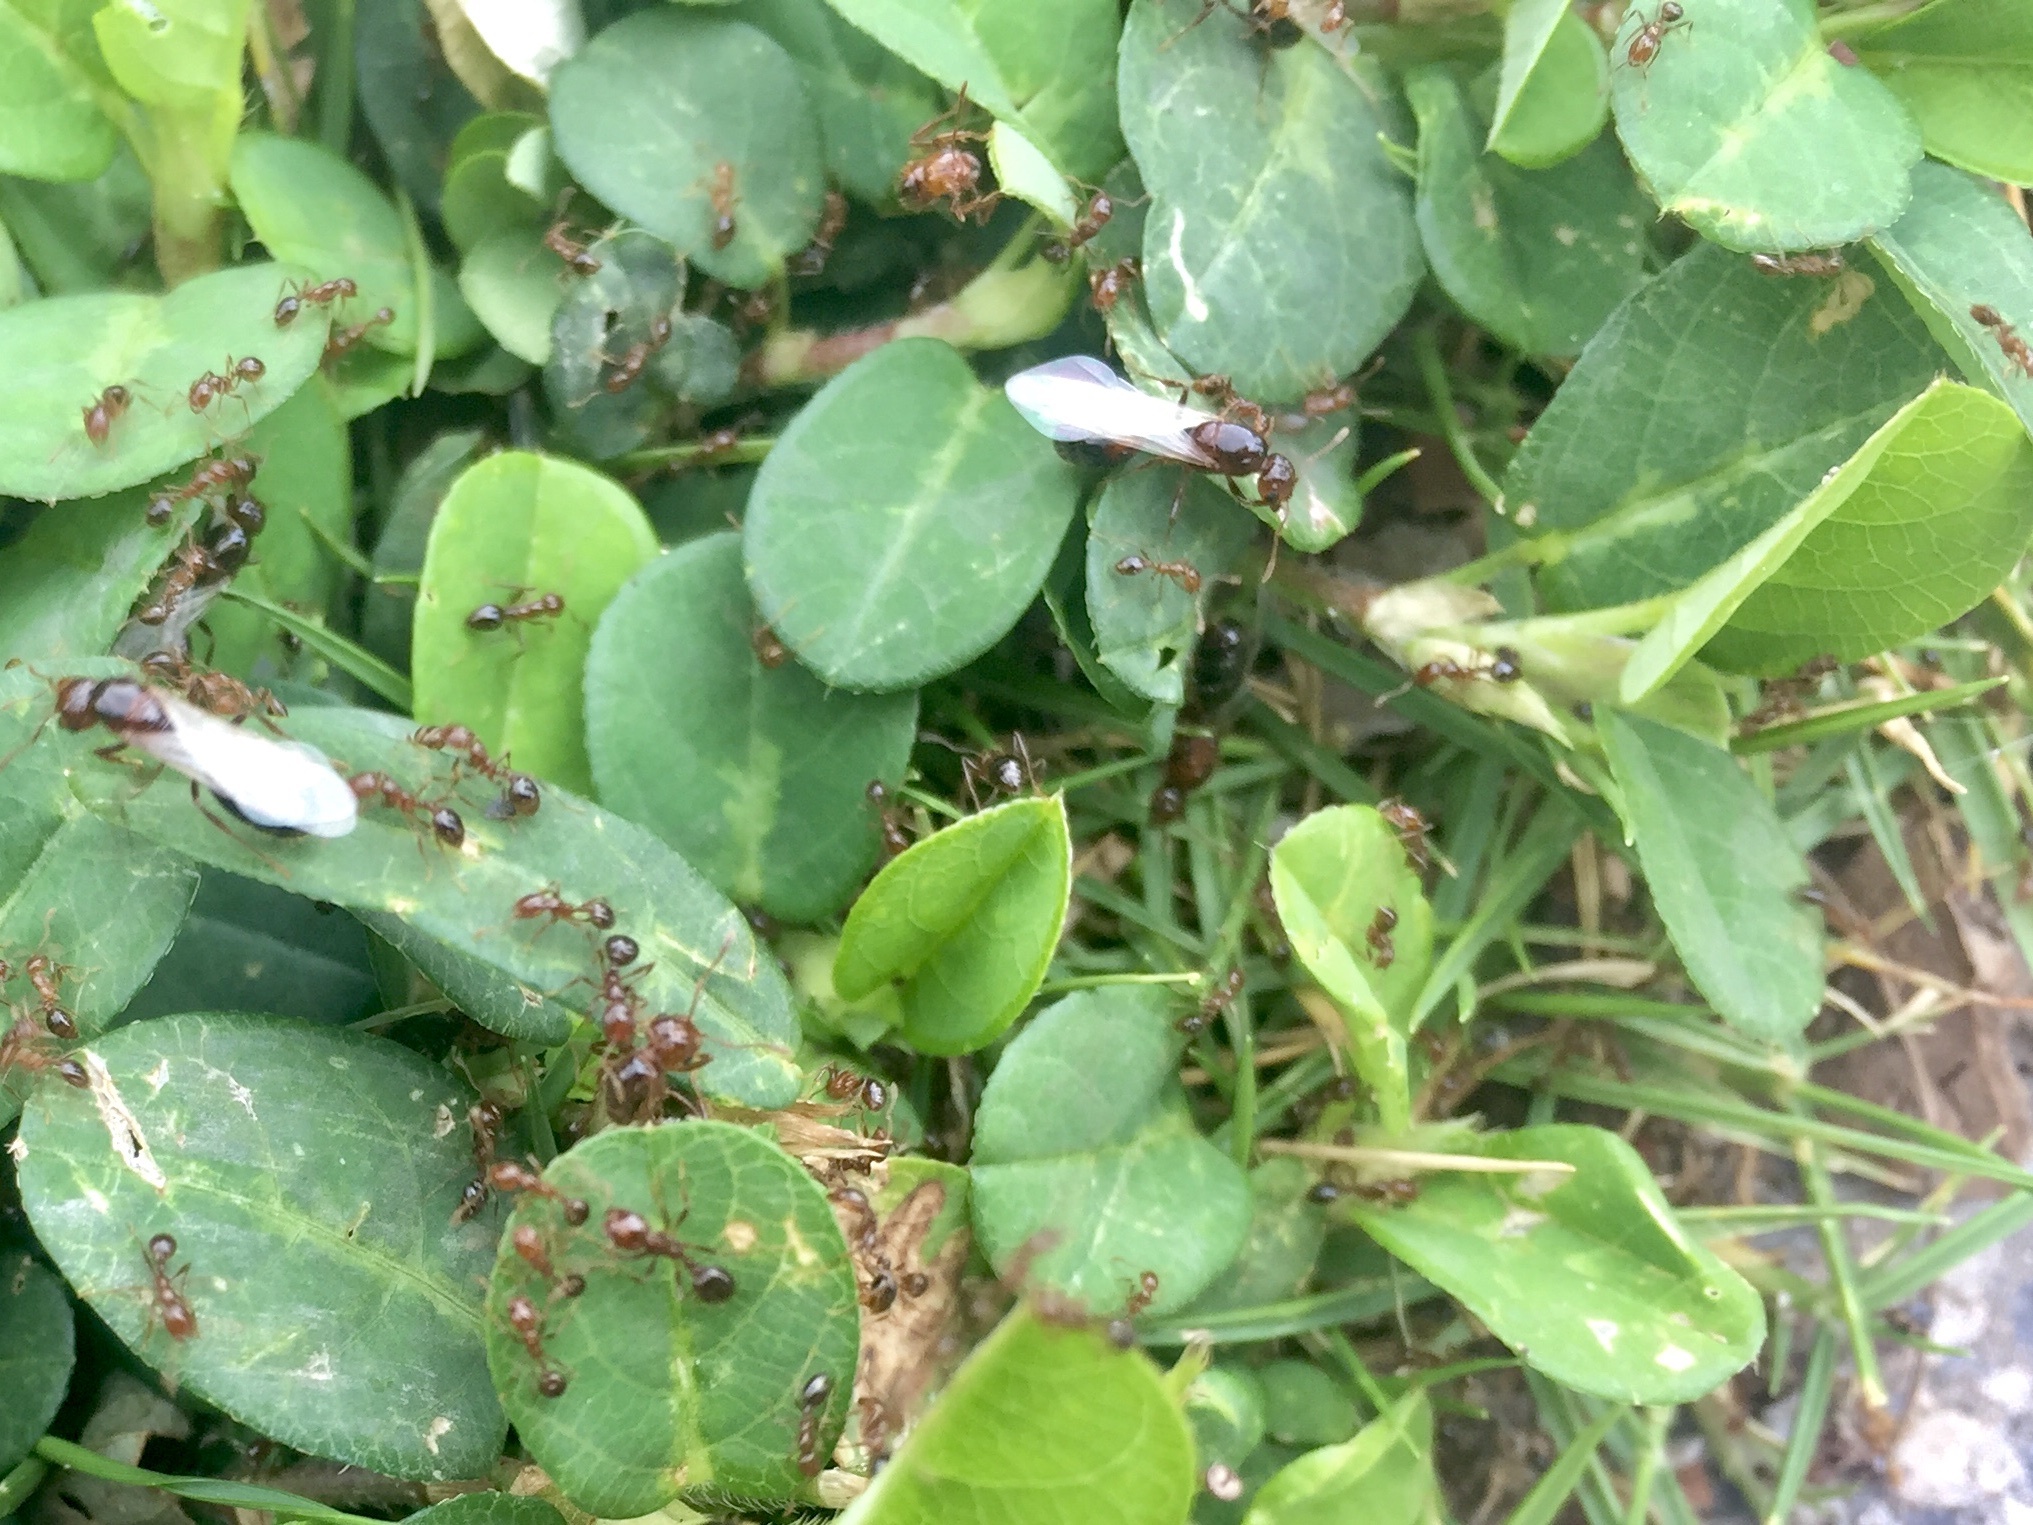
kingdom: Animalia
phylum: Arthropoda
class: Insecta
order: Hymenoptera
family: Formicidae
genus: Solenopsis
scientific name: Solenopsis invicta
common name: Red imported fire ant
